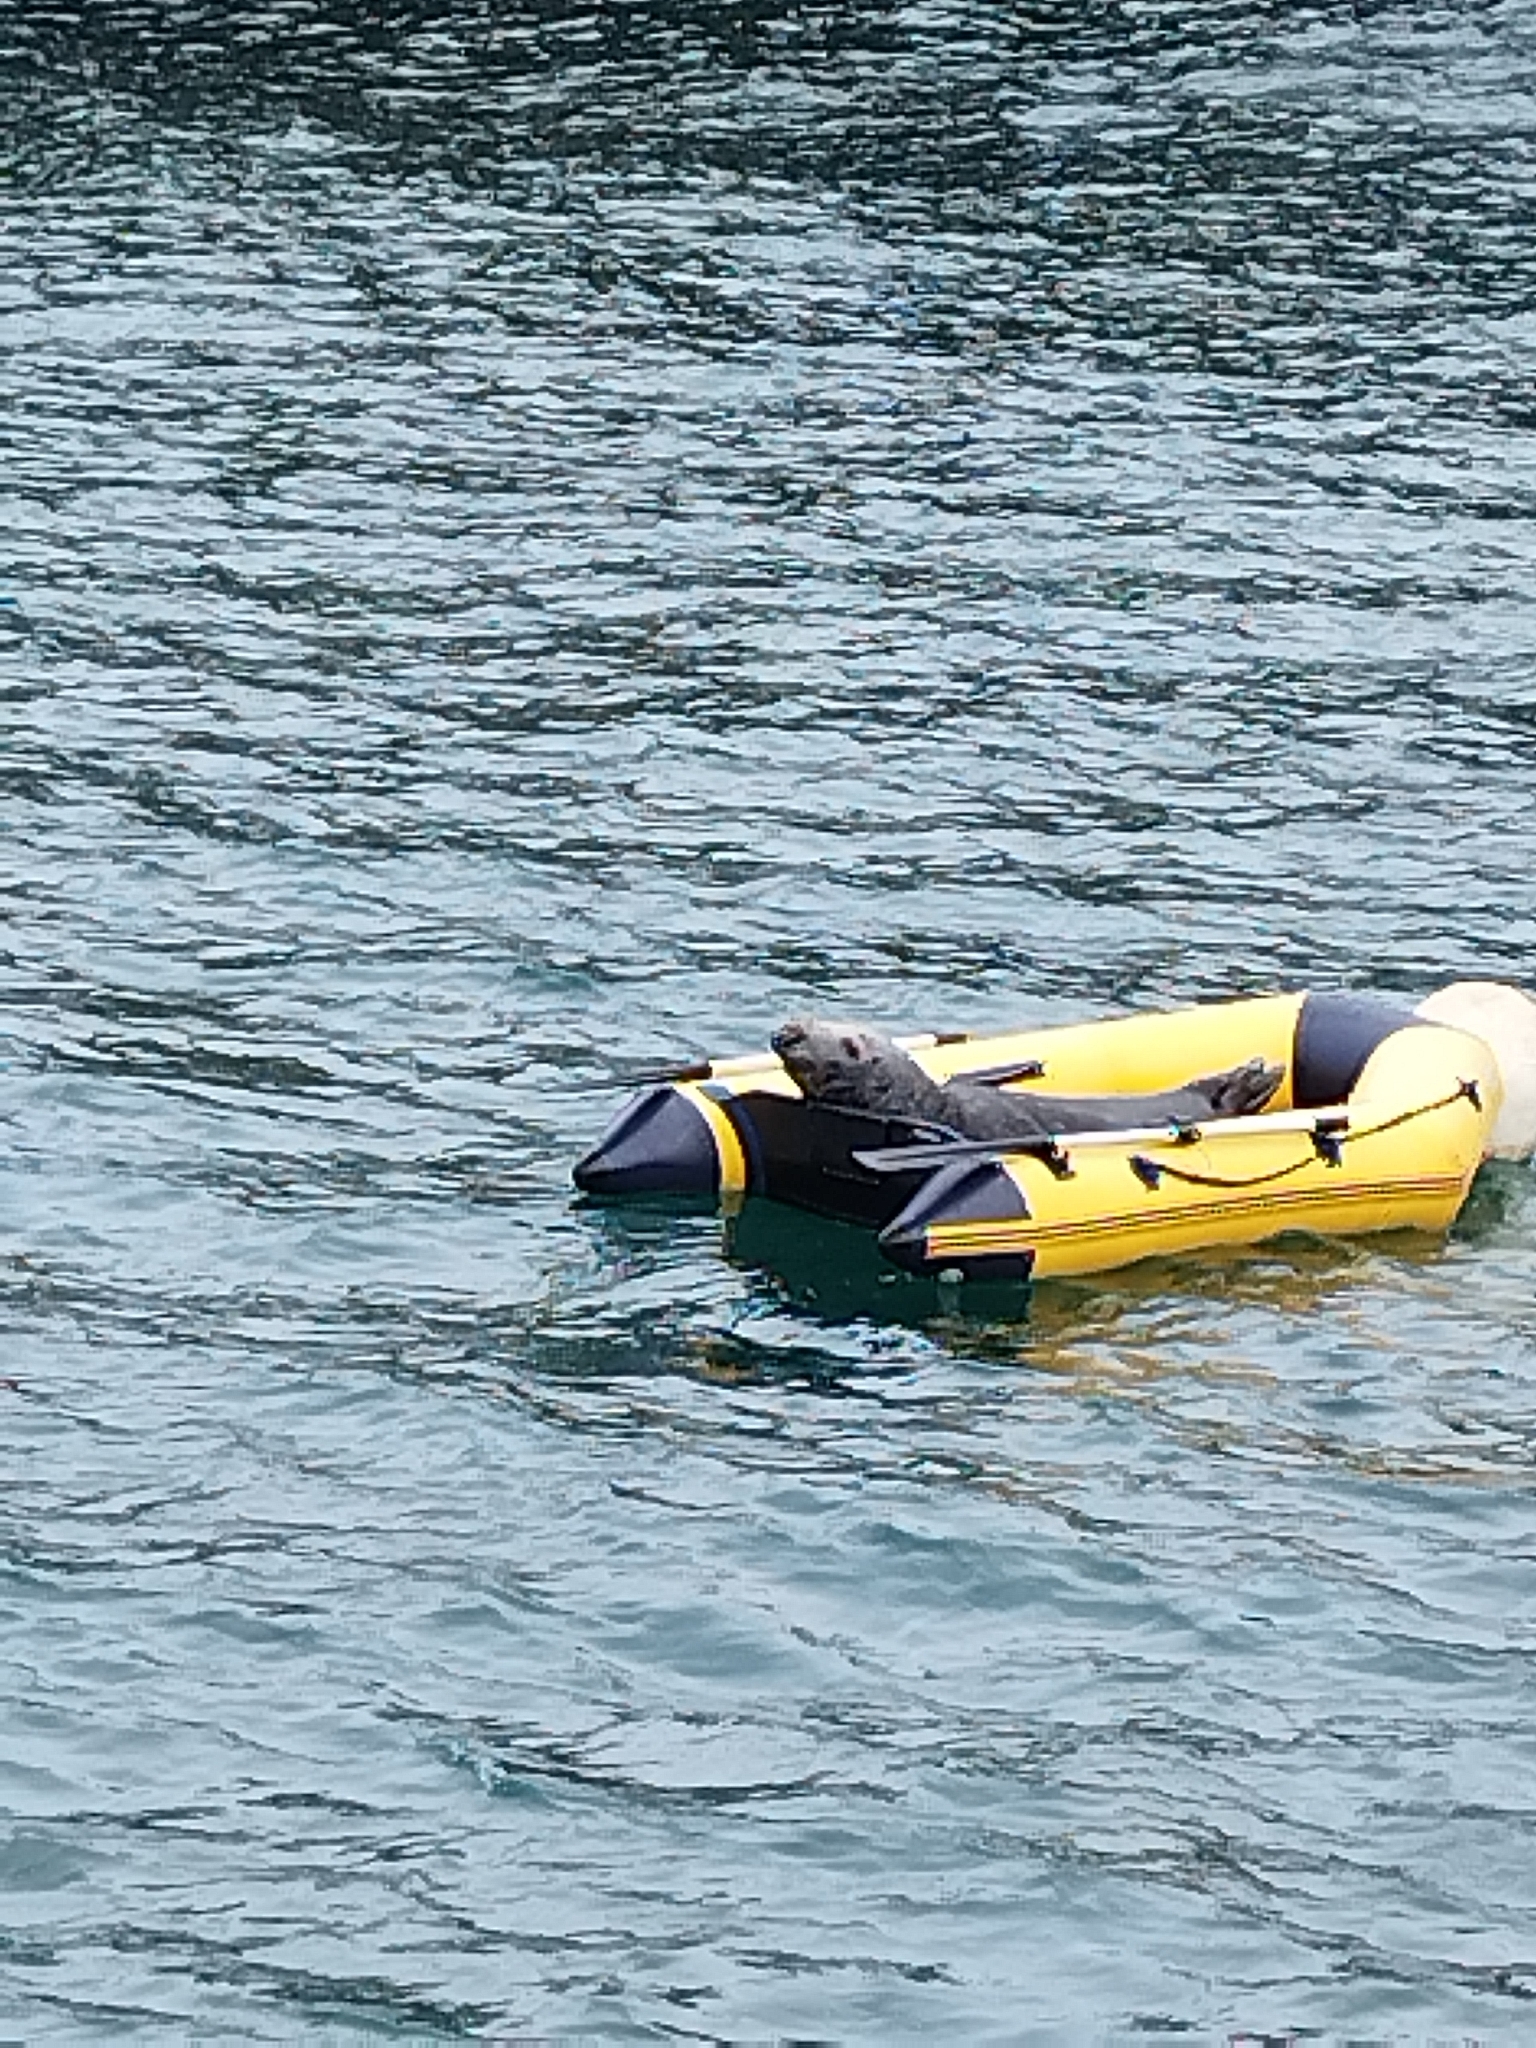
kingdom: Animalia
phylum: Chordata
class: Mammalia
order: Carnivora
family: Phocidae
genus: Halichoerus
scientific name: Halichoerus grypus
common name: Grey seal
